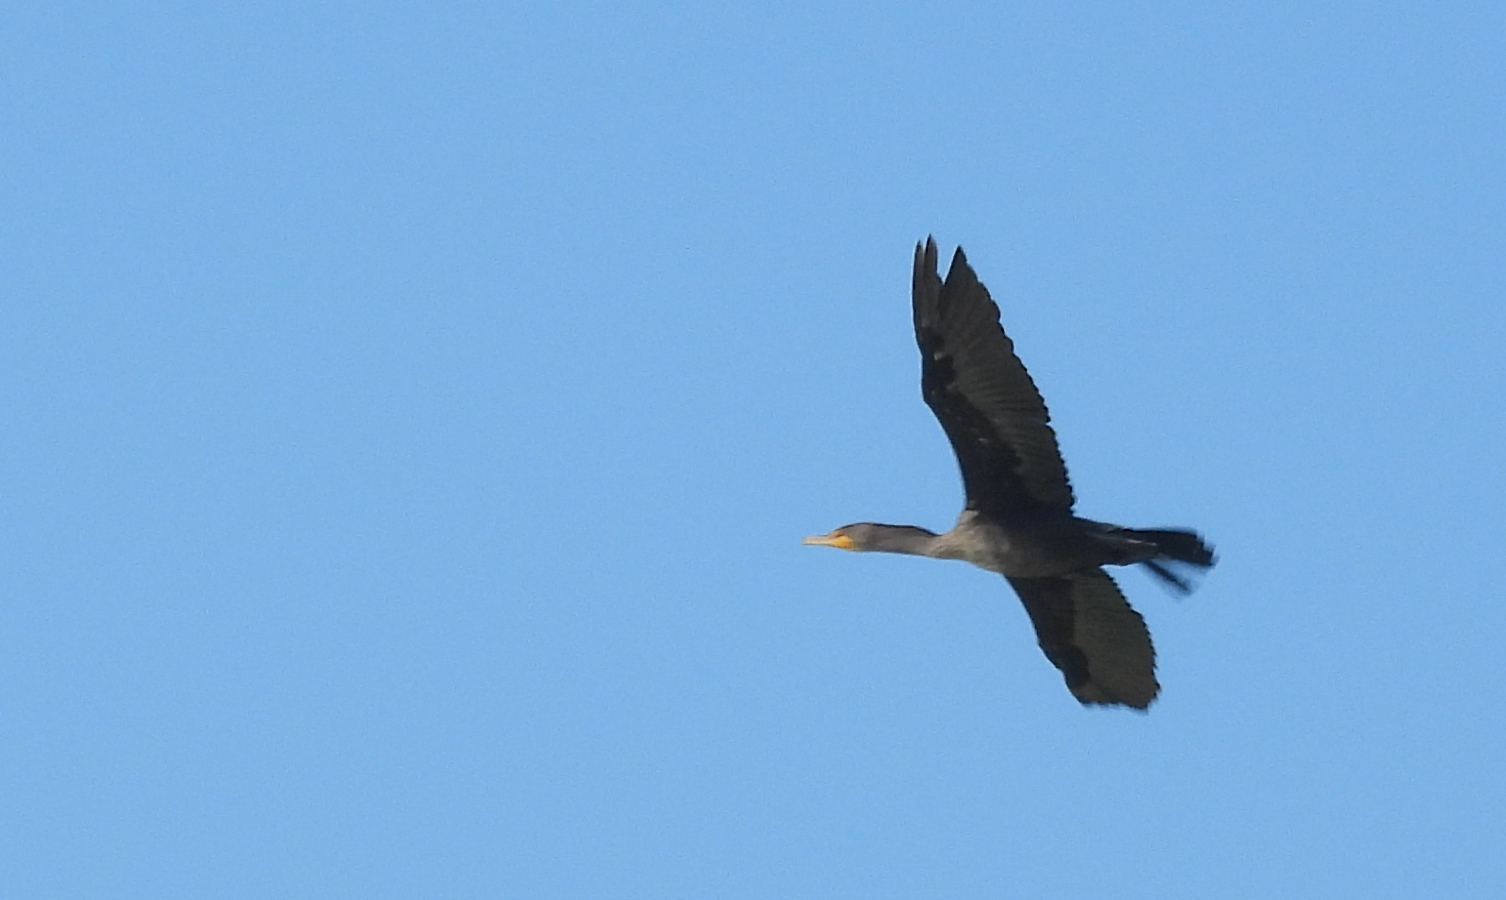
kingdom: Animalia
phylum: Chordata
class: Aves
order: Suliformes
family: Phalacrocoracidae
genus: Phalacrocorax
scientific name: Phalacrocorax auritus
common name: Double-crested cormorant
